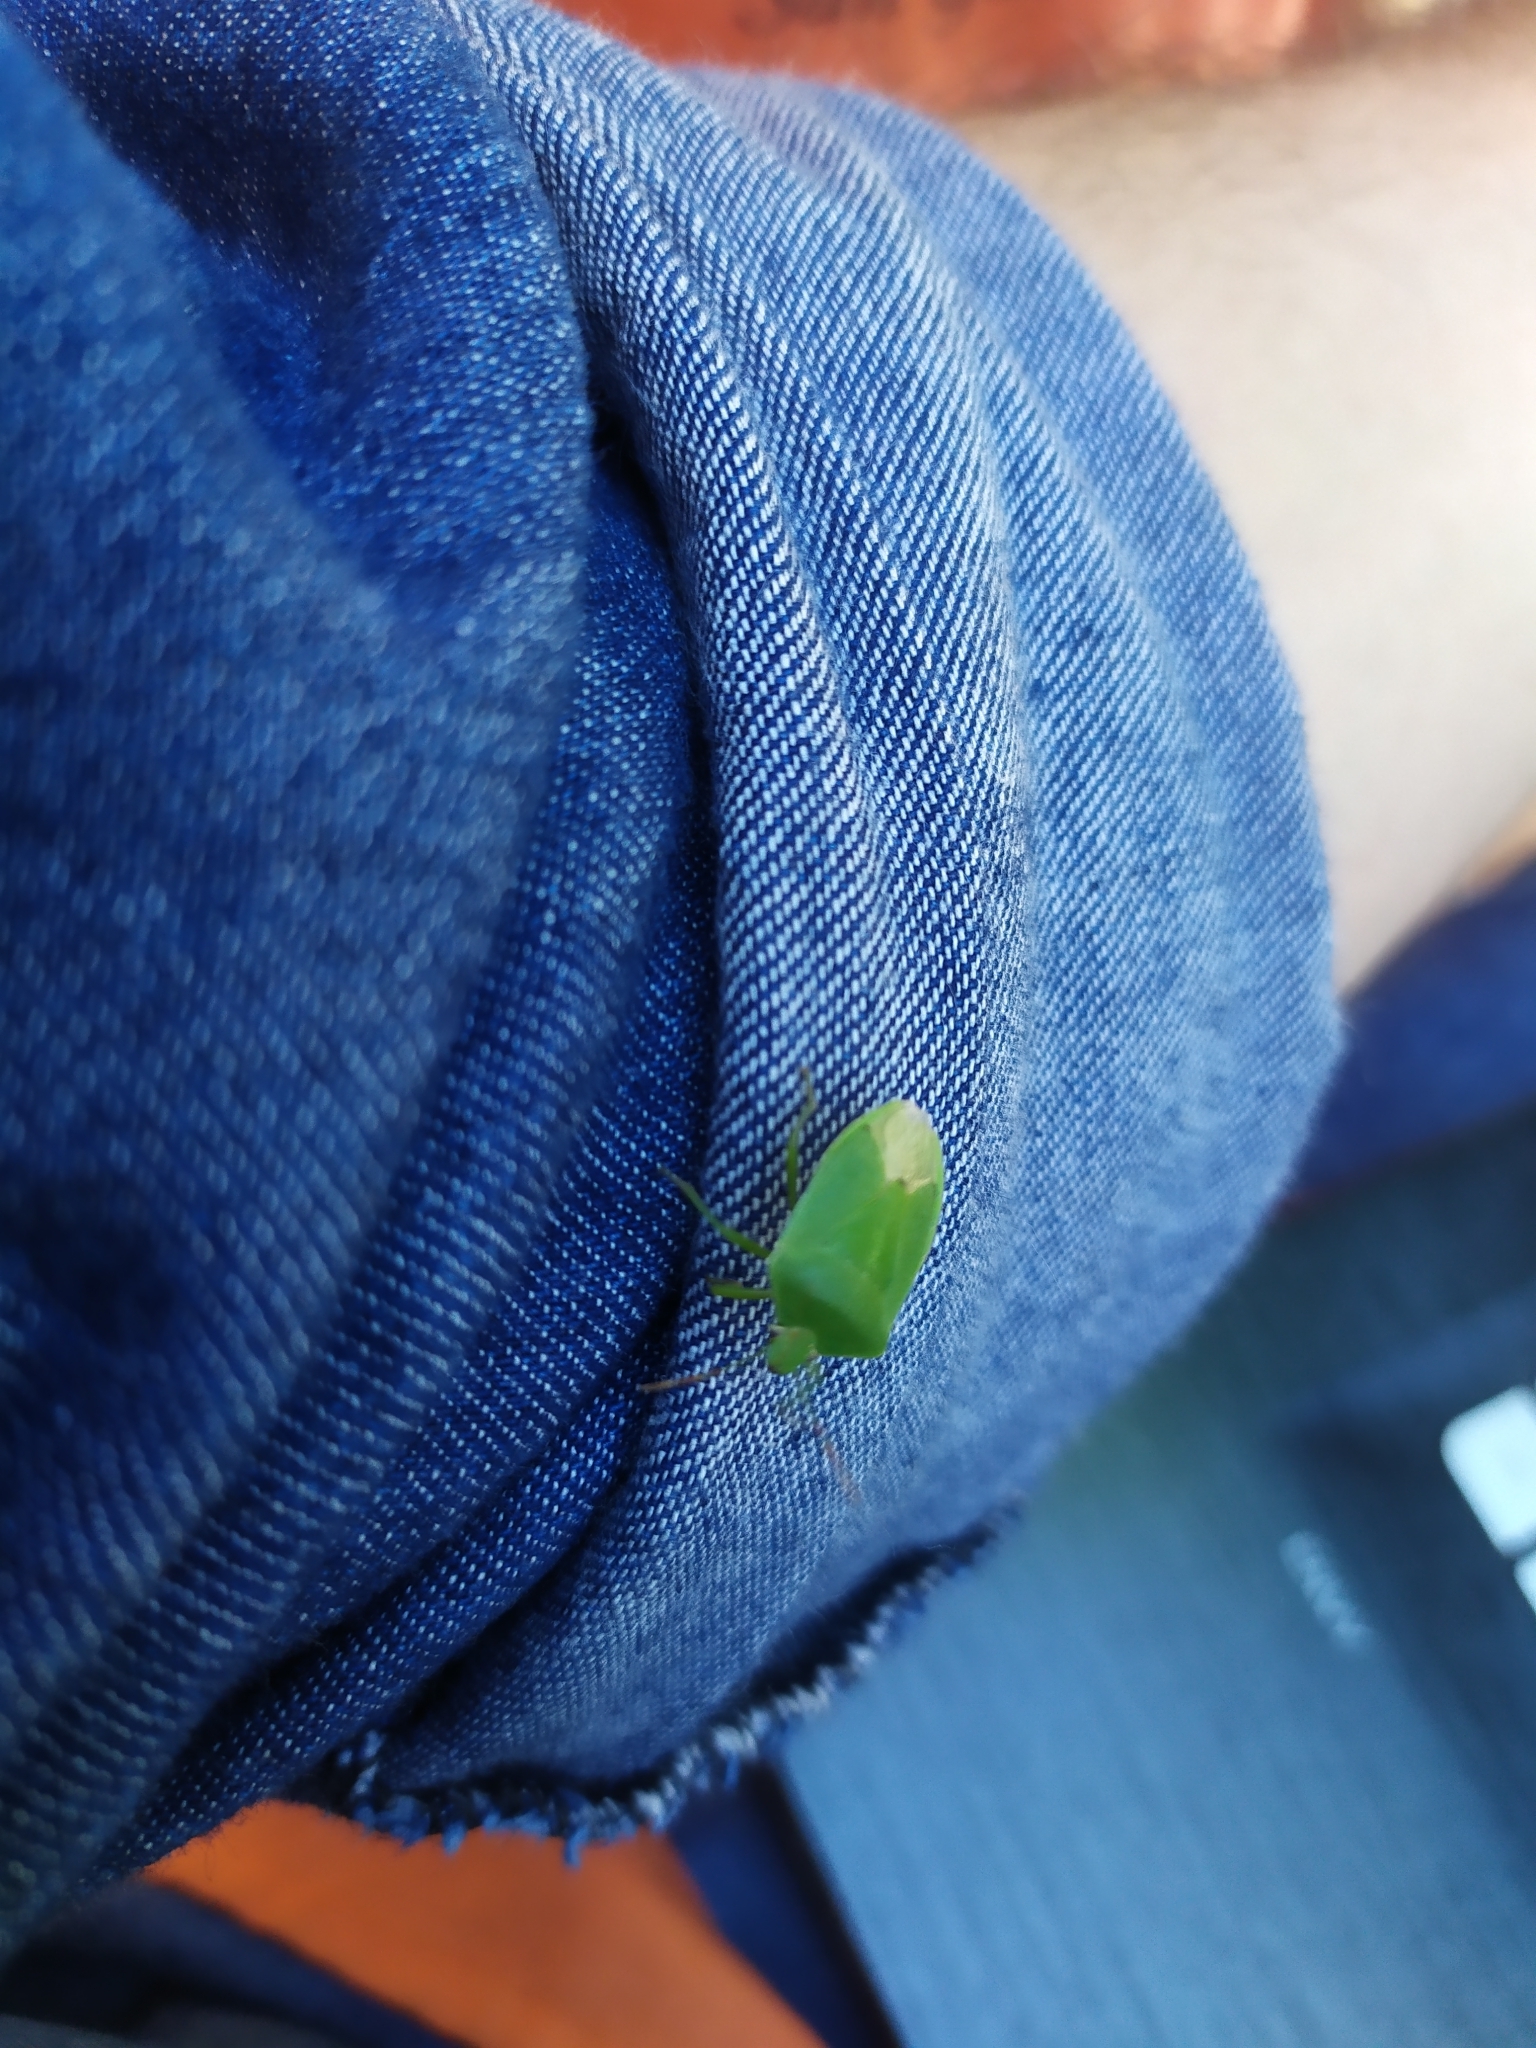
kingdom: Animalia
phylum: Arthropoda
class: Insecta
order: Hemiptera
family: Pentatomidae
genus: Nezara
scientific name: Nezara viridula
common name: Southern green stink bug
